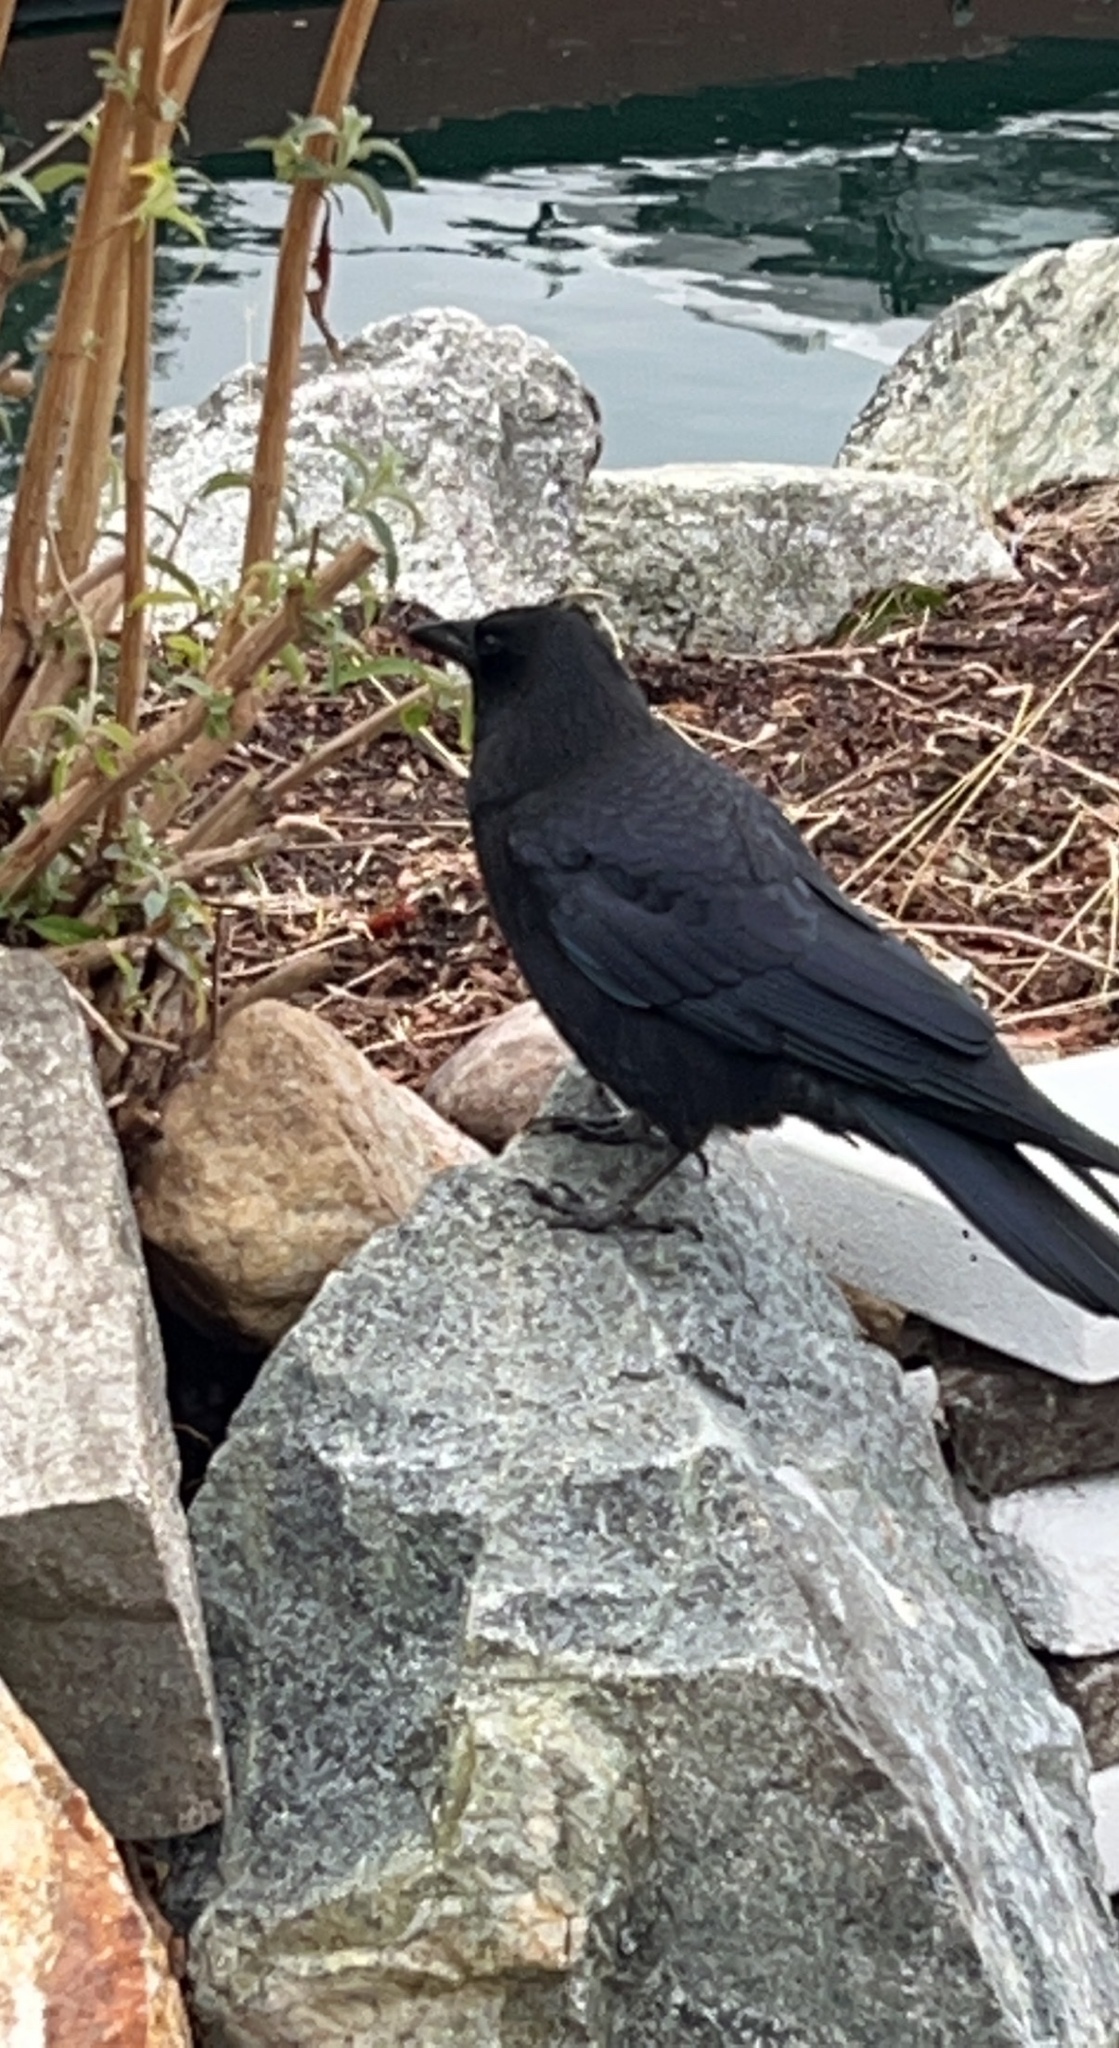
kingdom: Animalia
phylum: Chordata
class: Aves
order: Passeriformes
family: Corvidae
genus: Corvus
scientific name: Corvus brachyrhynchos
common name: American crow
